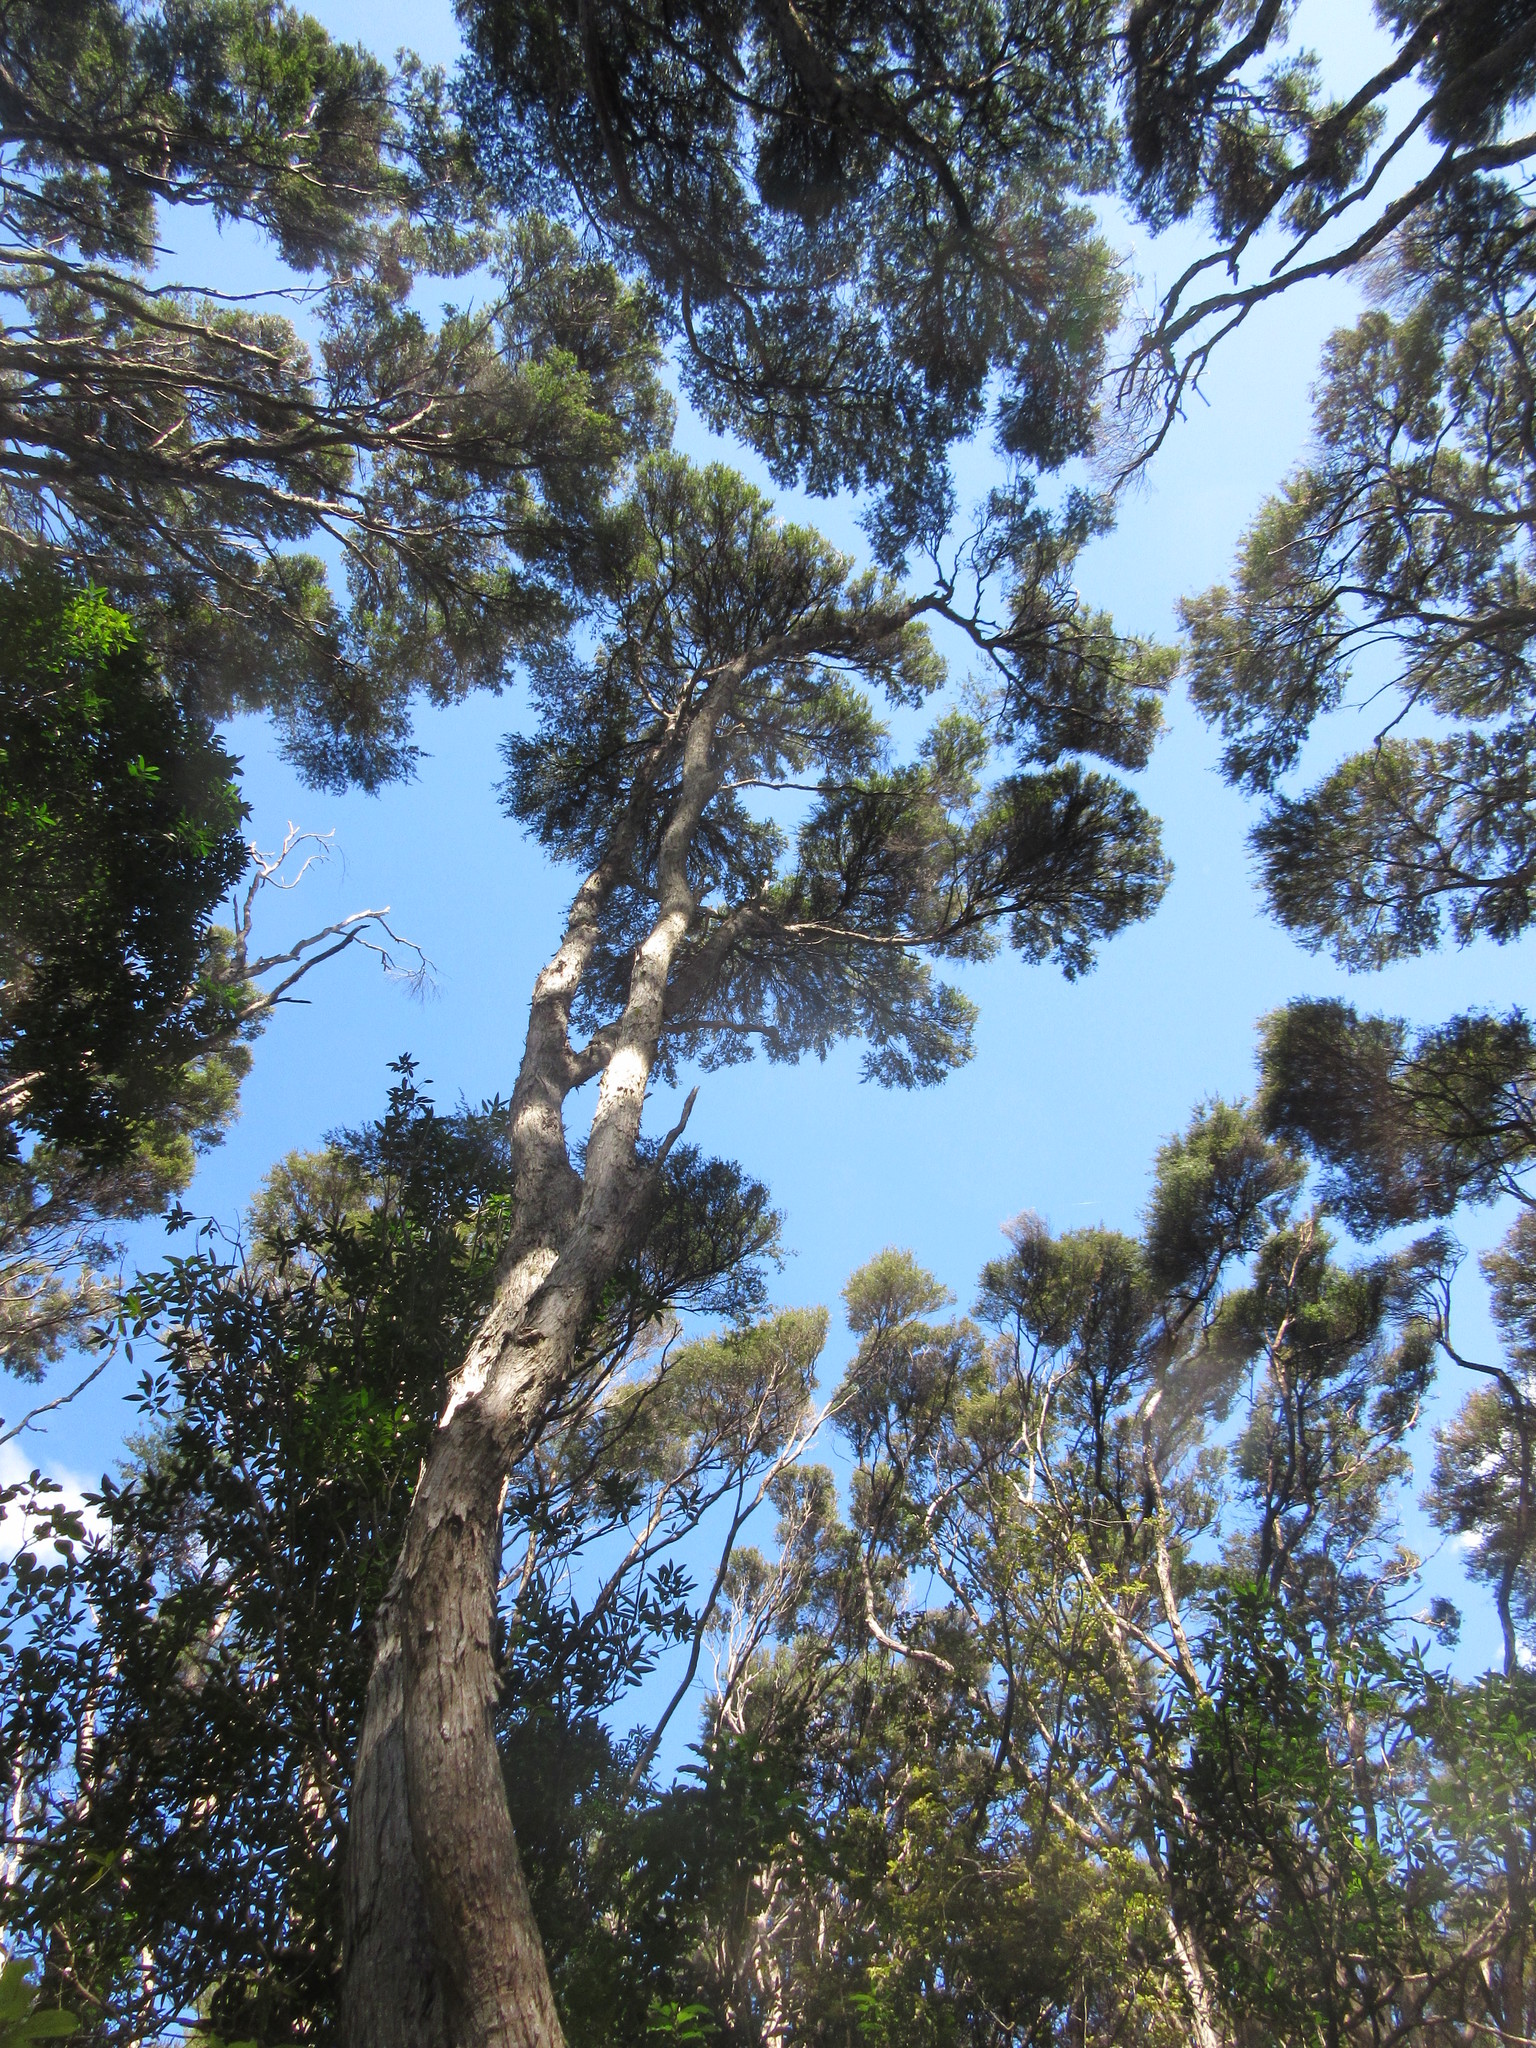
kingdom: Plantae
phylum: Tracheophyta
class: Magnoliopsida
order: Myrtales
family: Myrtaceae
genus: Kunzea
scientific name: Kunzea robusta
